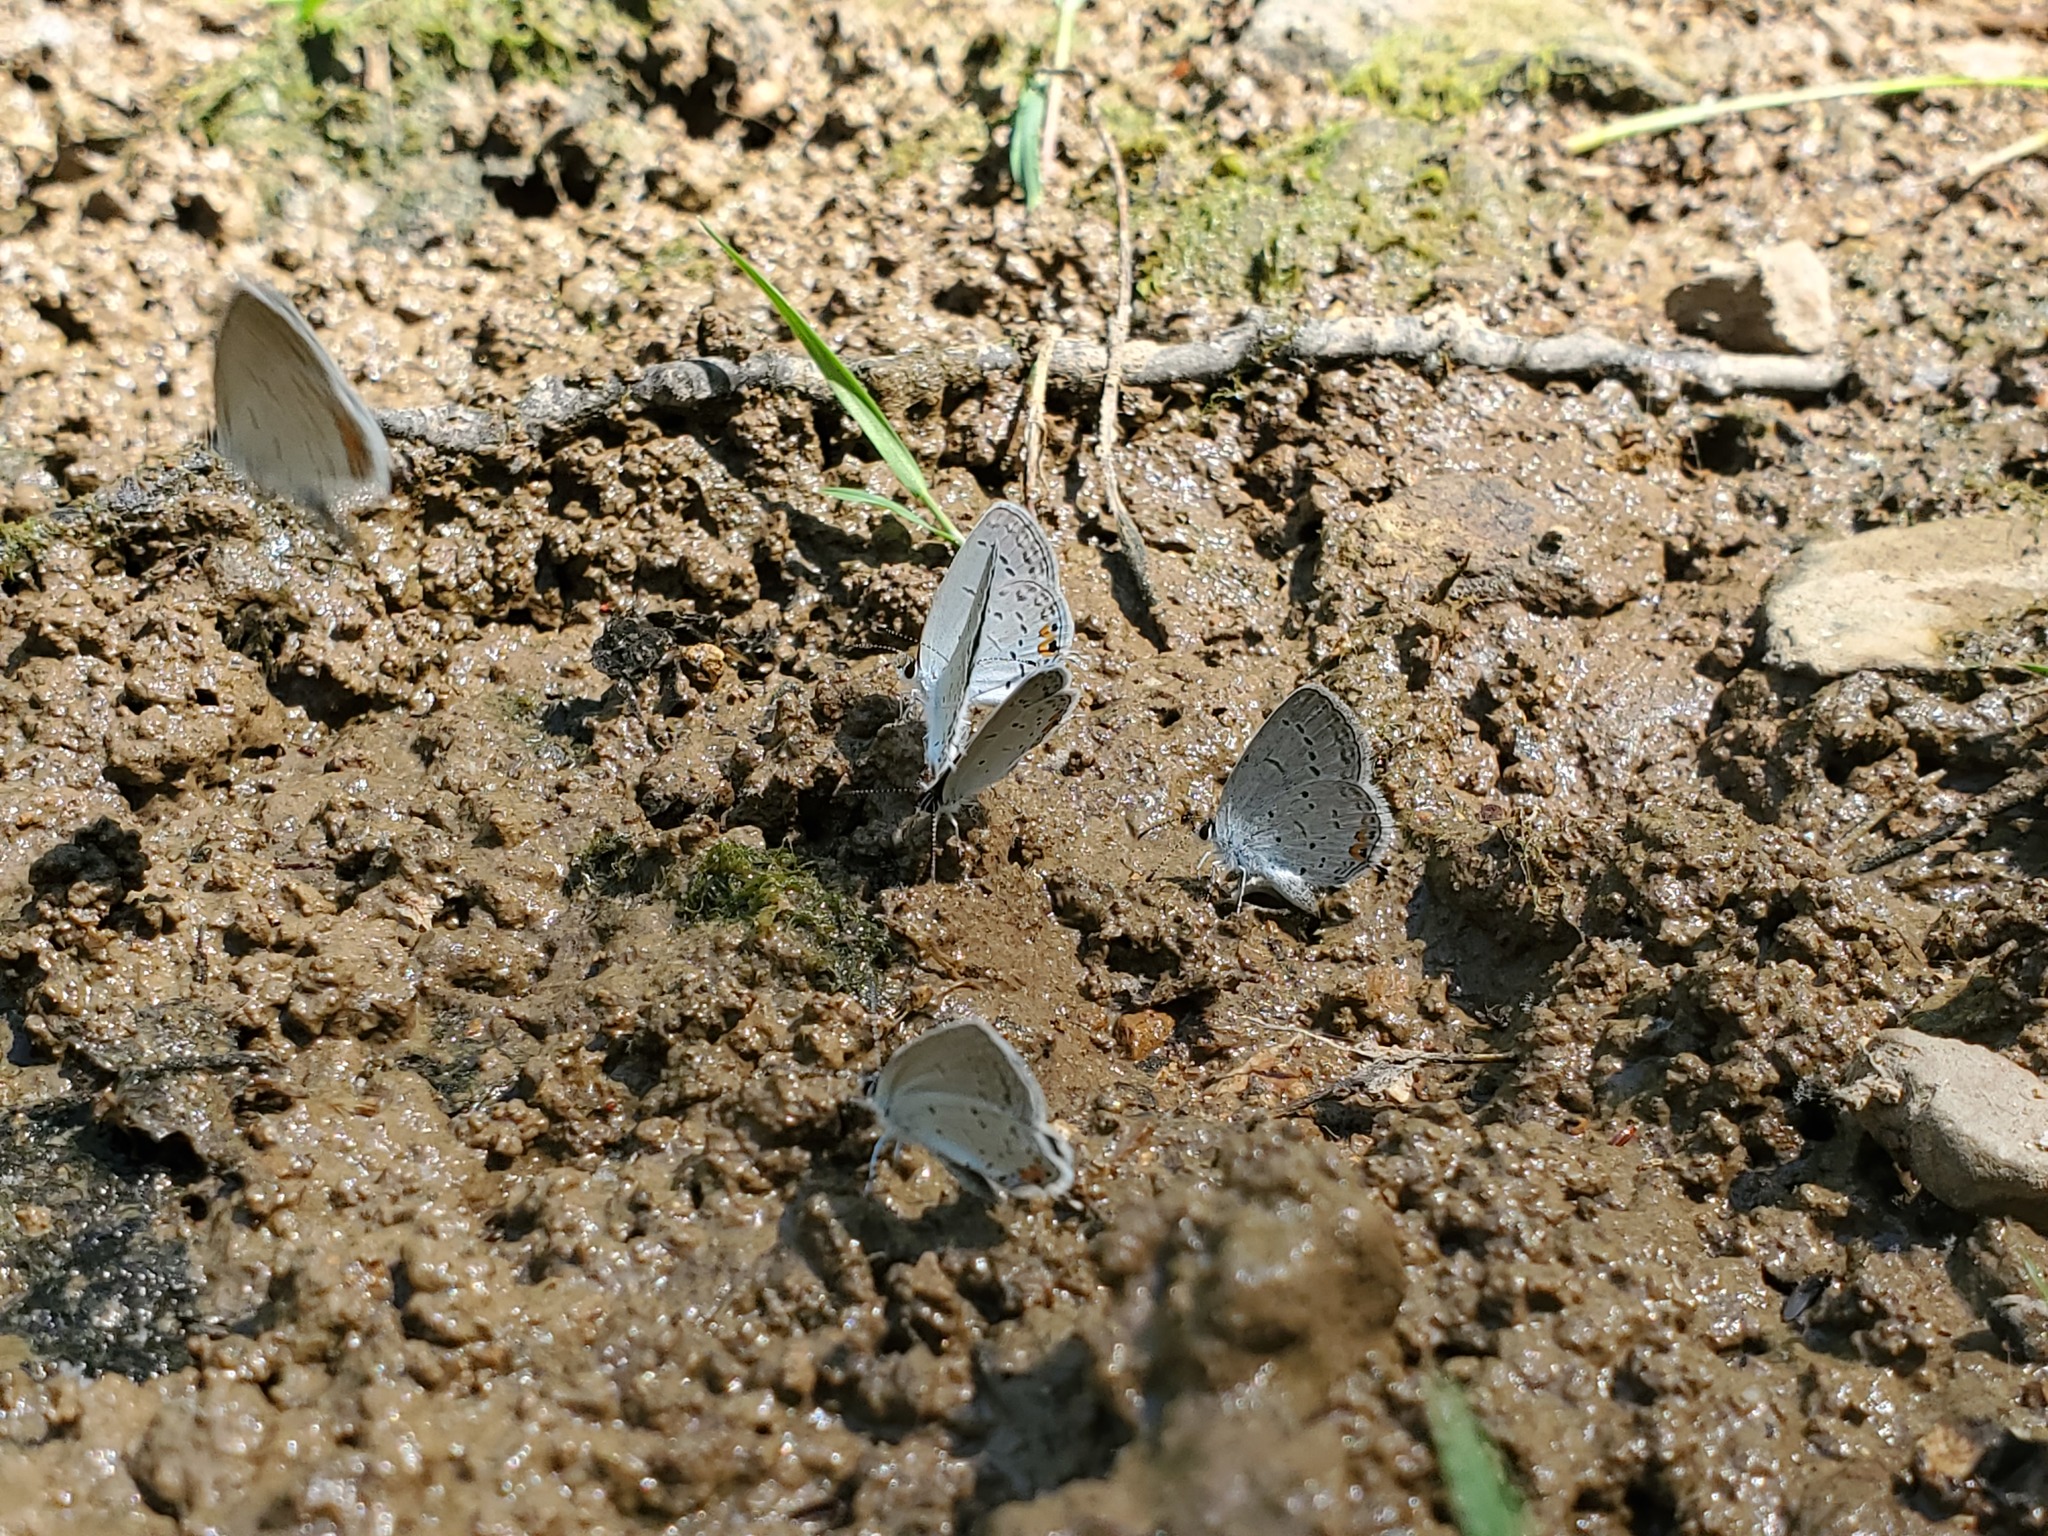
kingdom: Animalia
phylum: Arthropoda
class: Insecta
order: Lepidoptera
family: Lycaenidae
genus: Elkalyce
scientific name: Elkalyce comyntas
